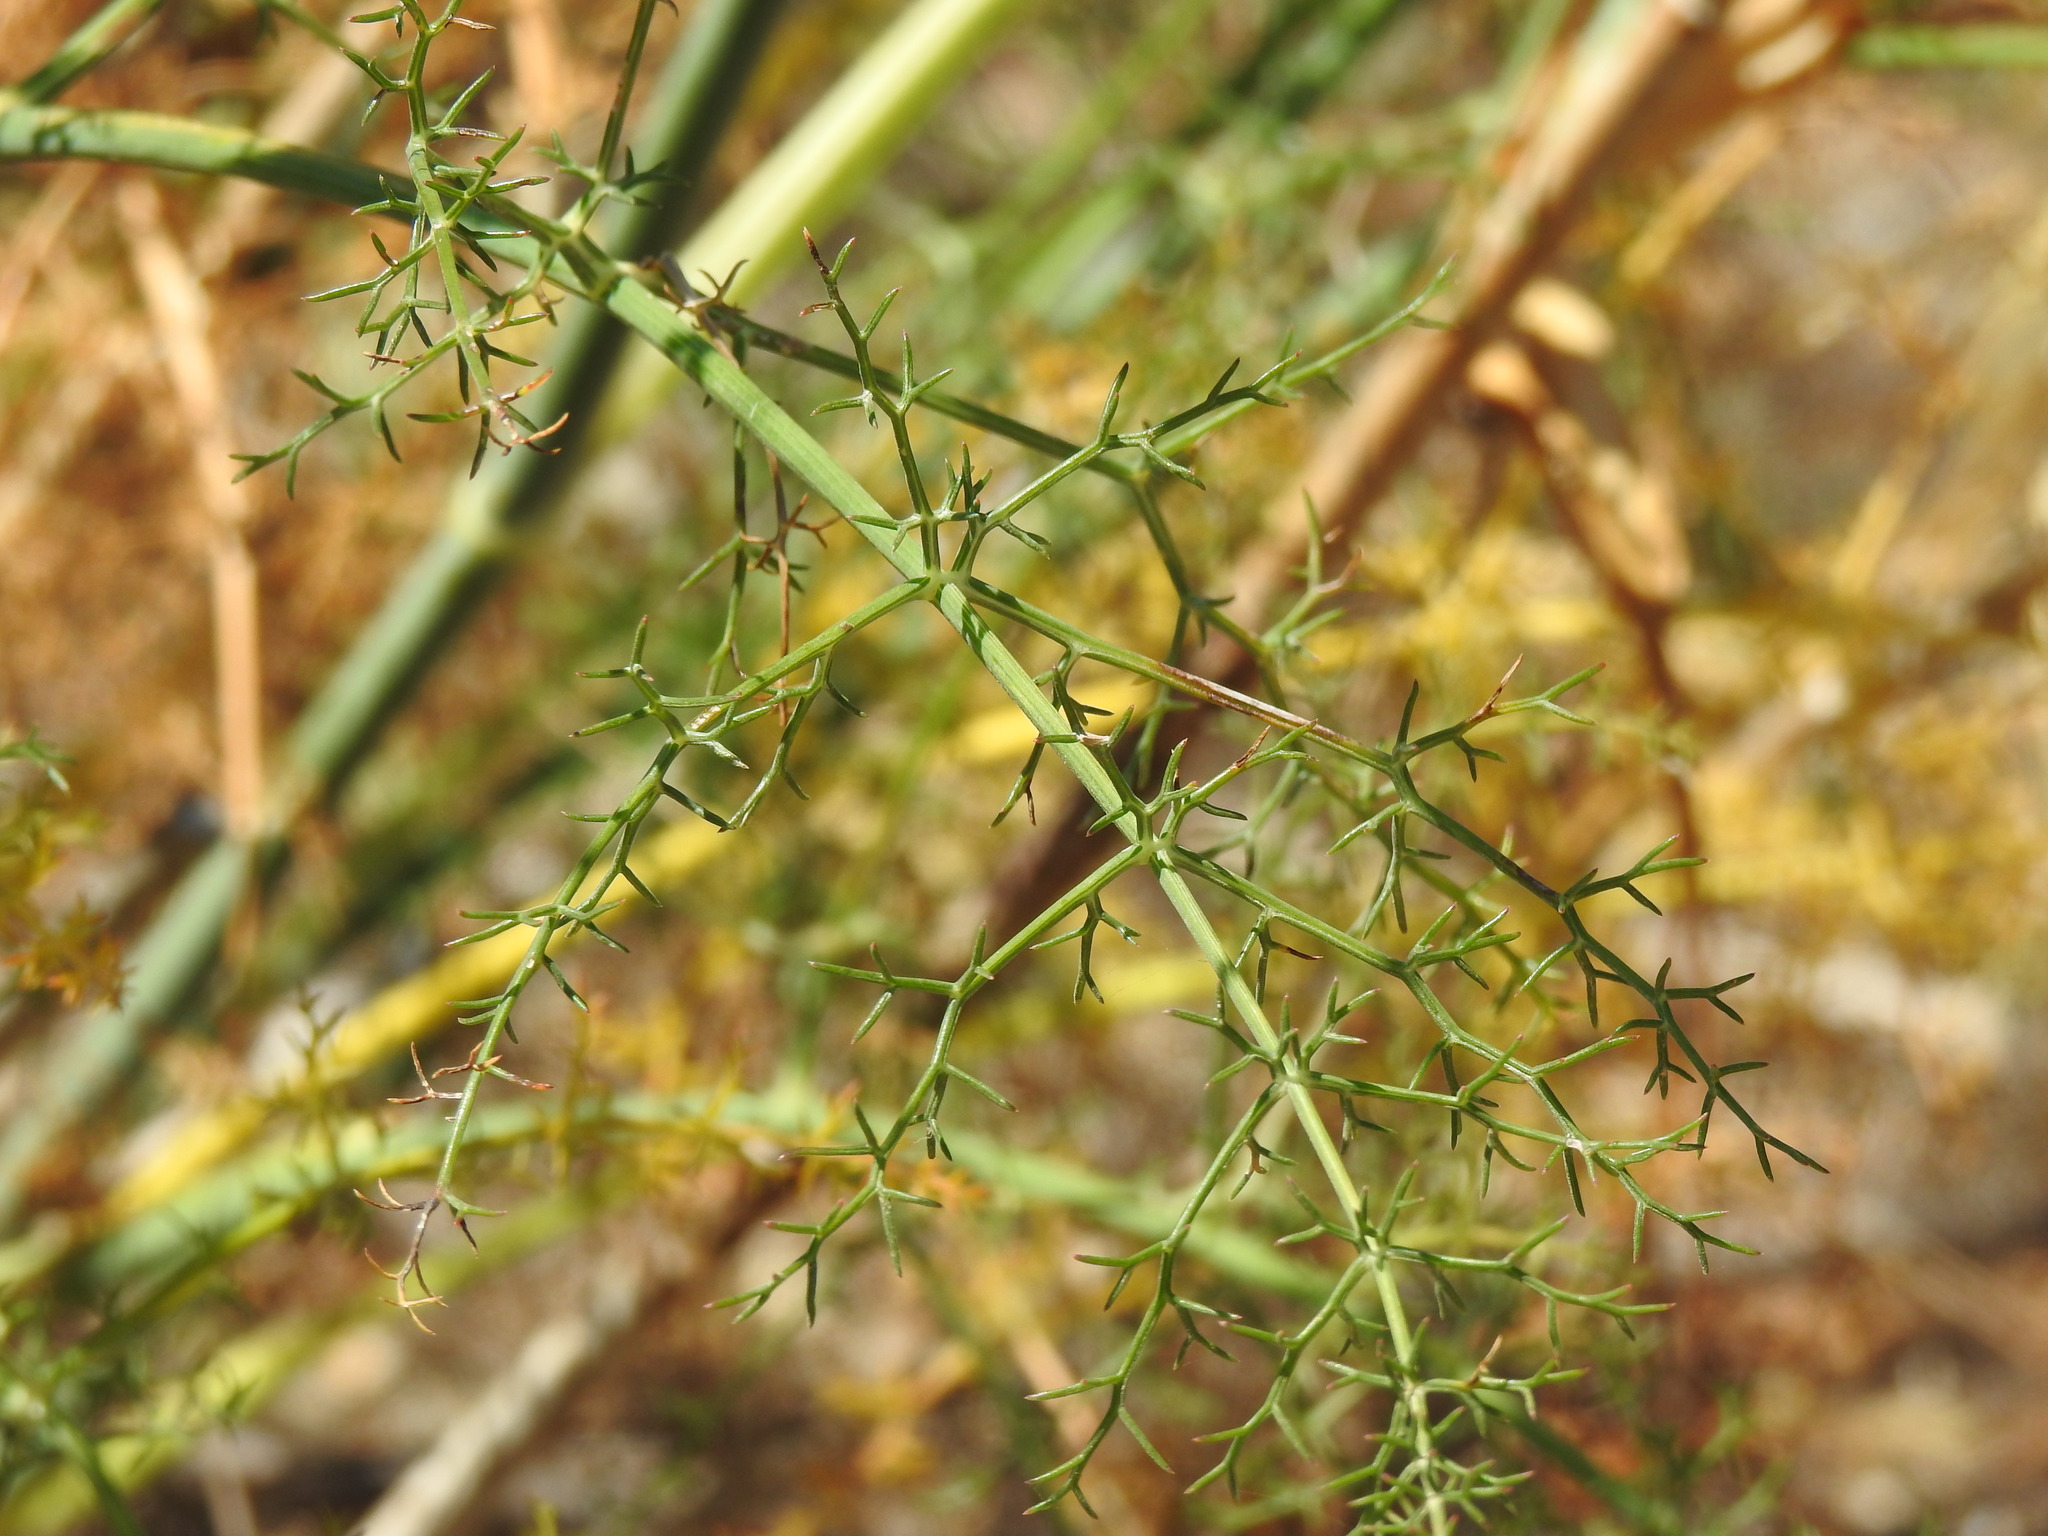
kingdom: Plantae
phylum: Tracheophyta
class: Magnoliopsida
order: Apiales
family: Apiaceae
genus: Foeniculum
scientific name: Foeniculum vulgare
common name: Fennel
